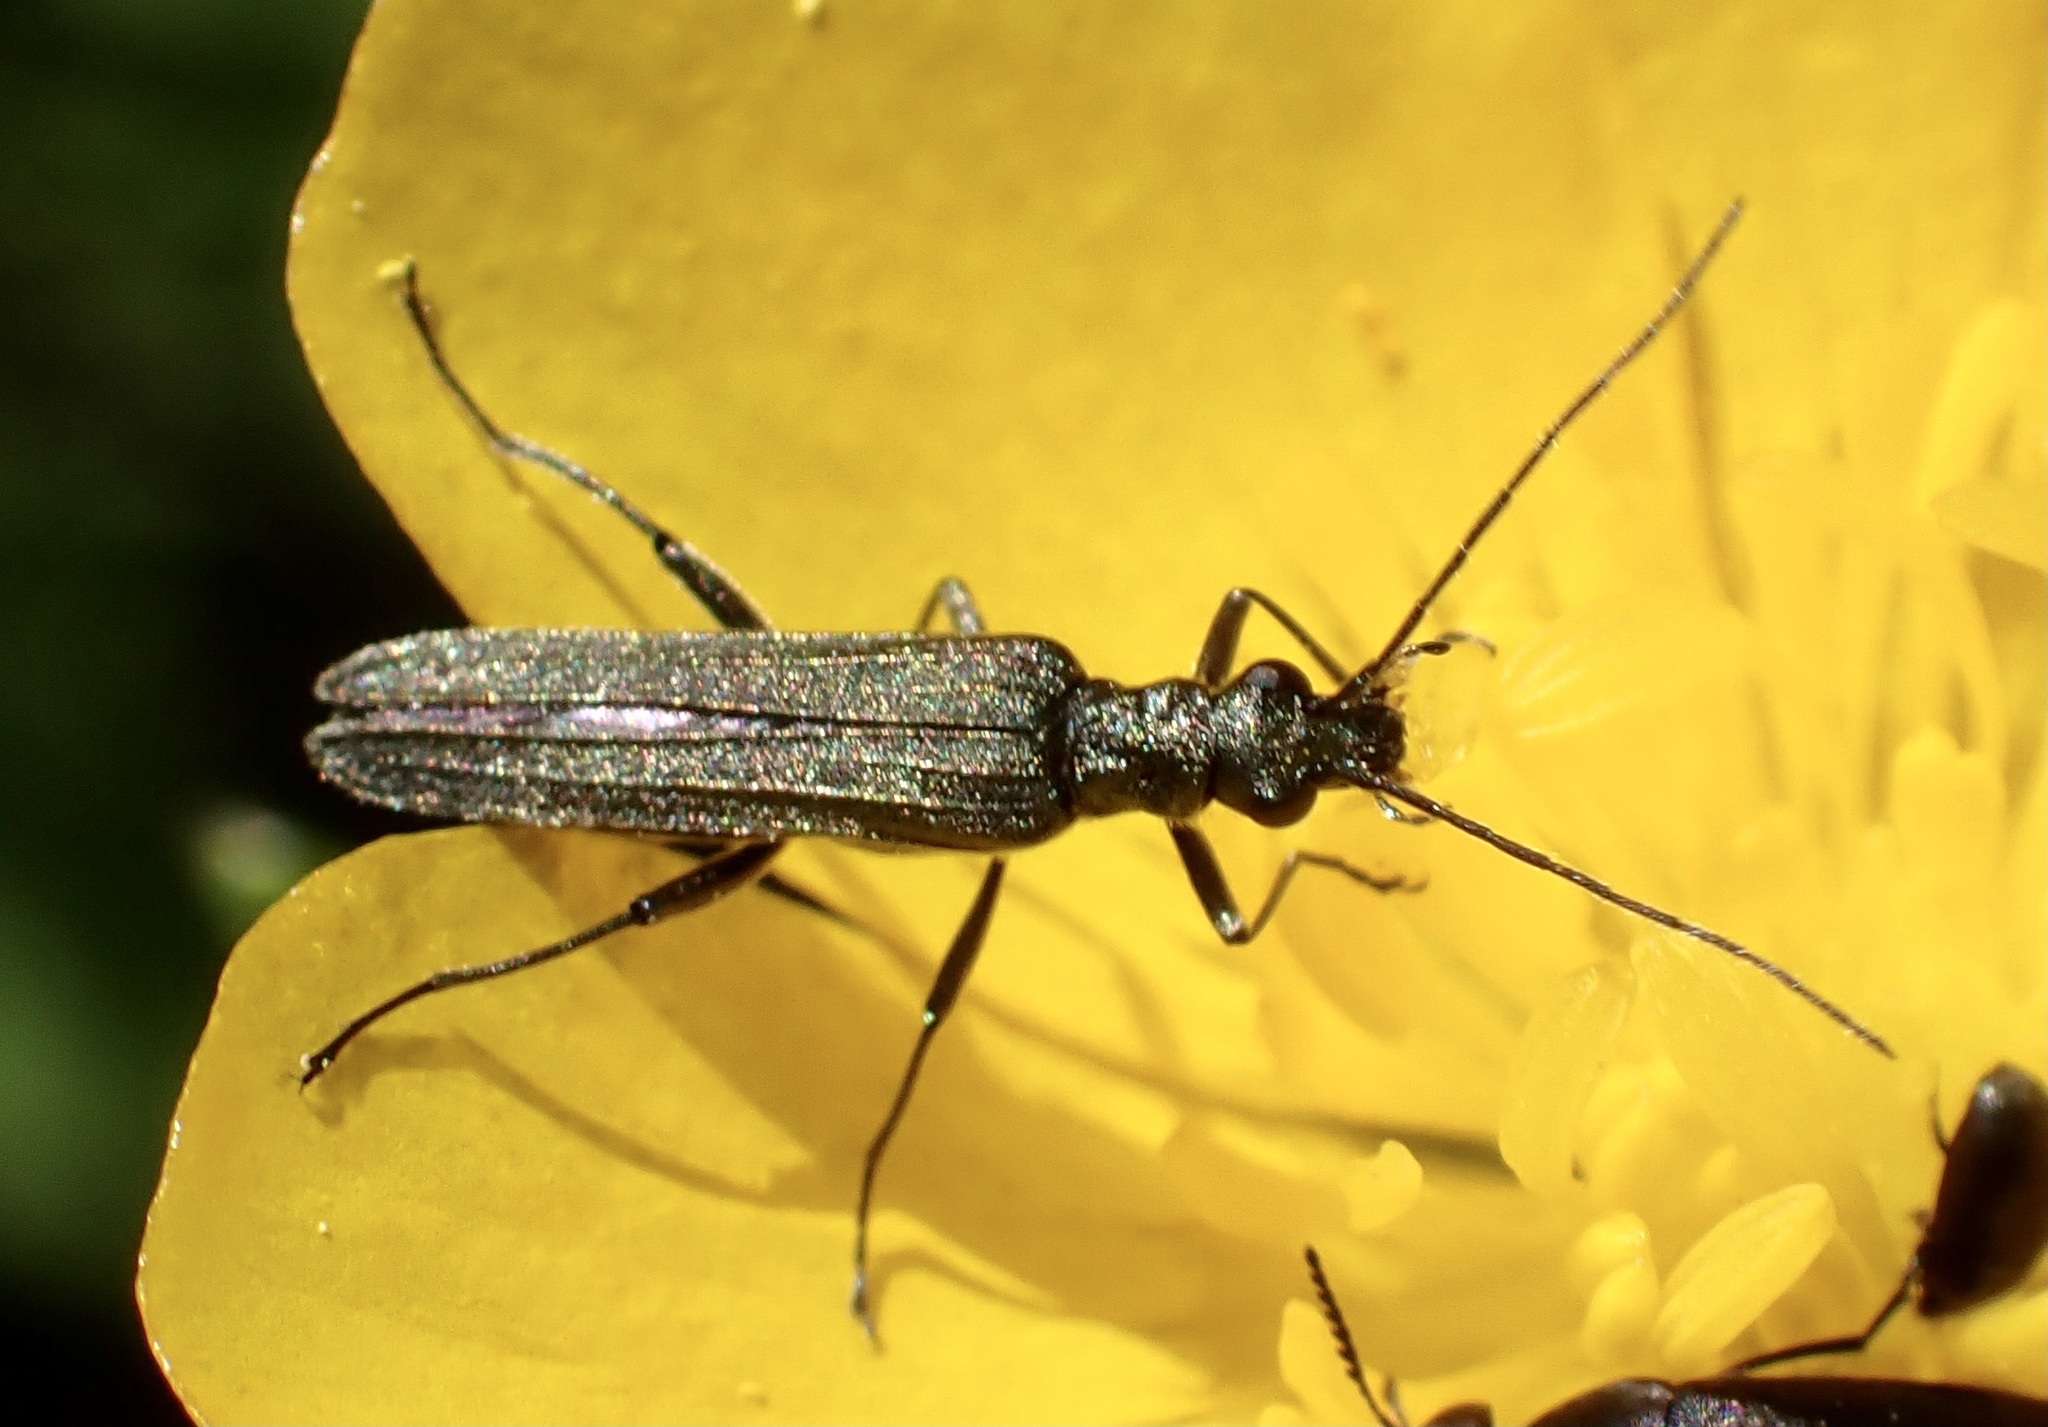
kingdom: Animalia
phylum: Arthropoda
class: Insecta
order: Coleoptera
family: Oedemeridae
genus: Oedemera
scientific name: Oedemera lurida
